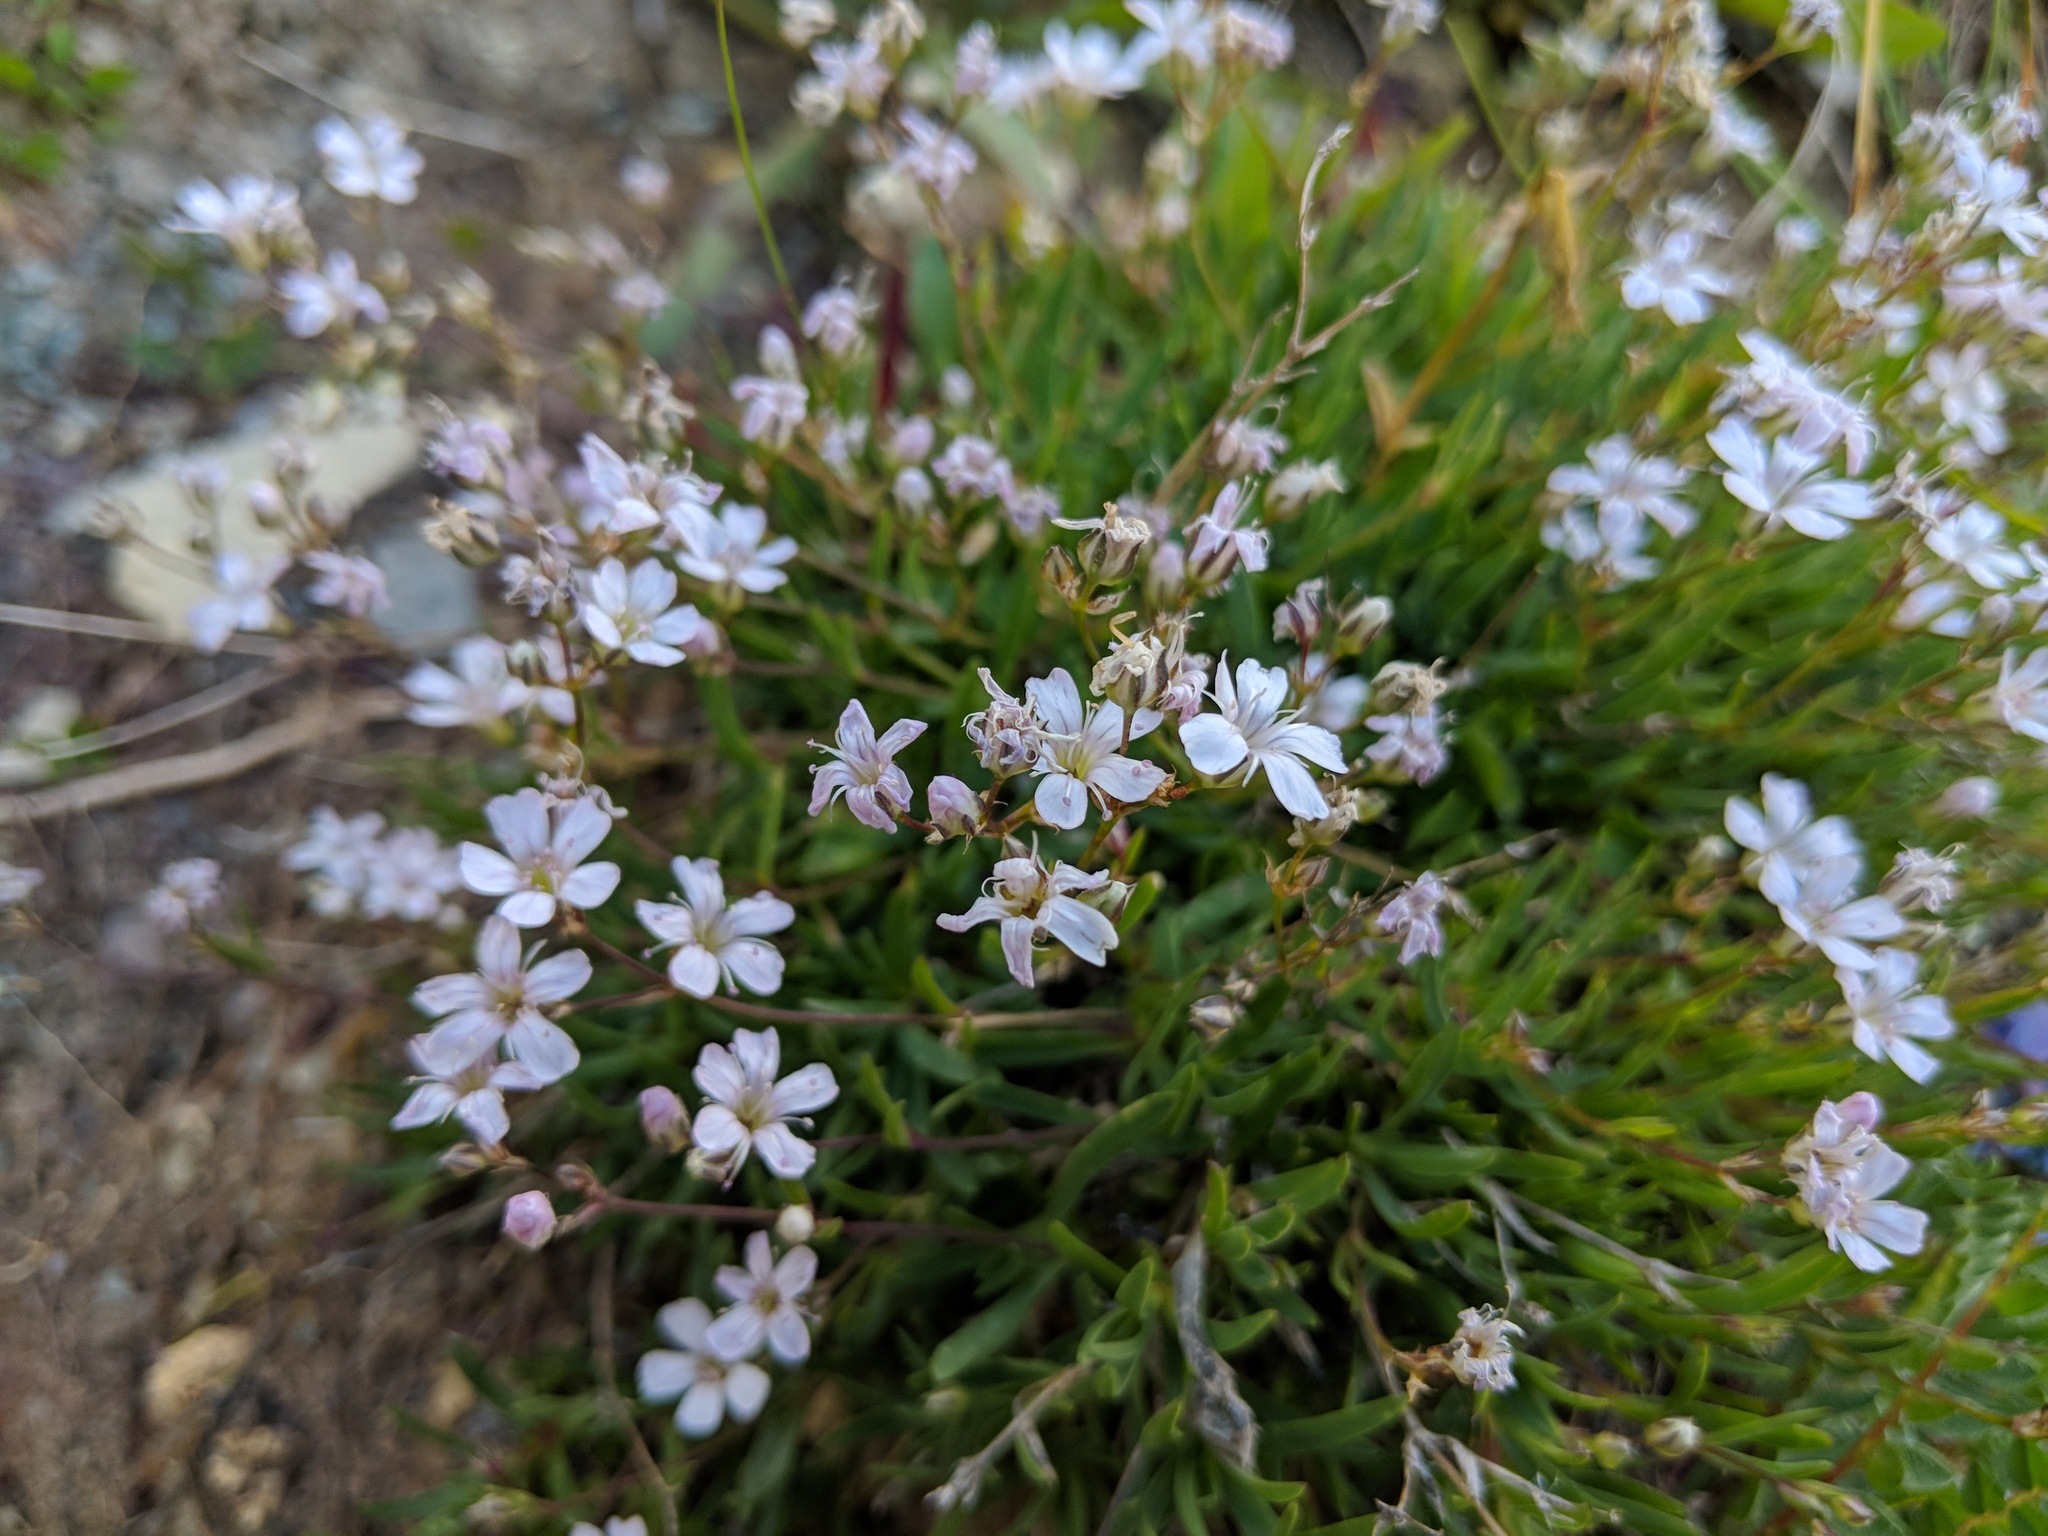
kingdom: Plantae
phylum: Tracheophyta
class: Magnoliopsida
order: Caryophyllales
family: Caryophyllaceae
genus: Gypsophila
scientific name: Gypsophila repens
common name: Creeping baby's-breath
